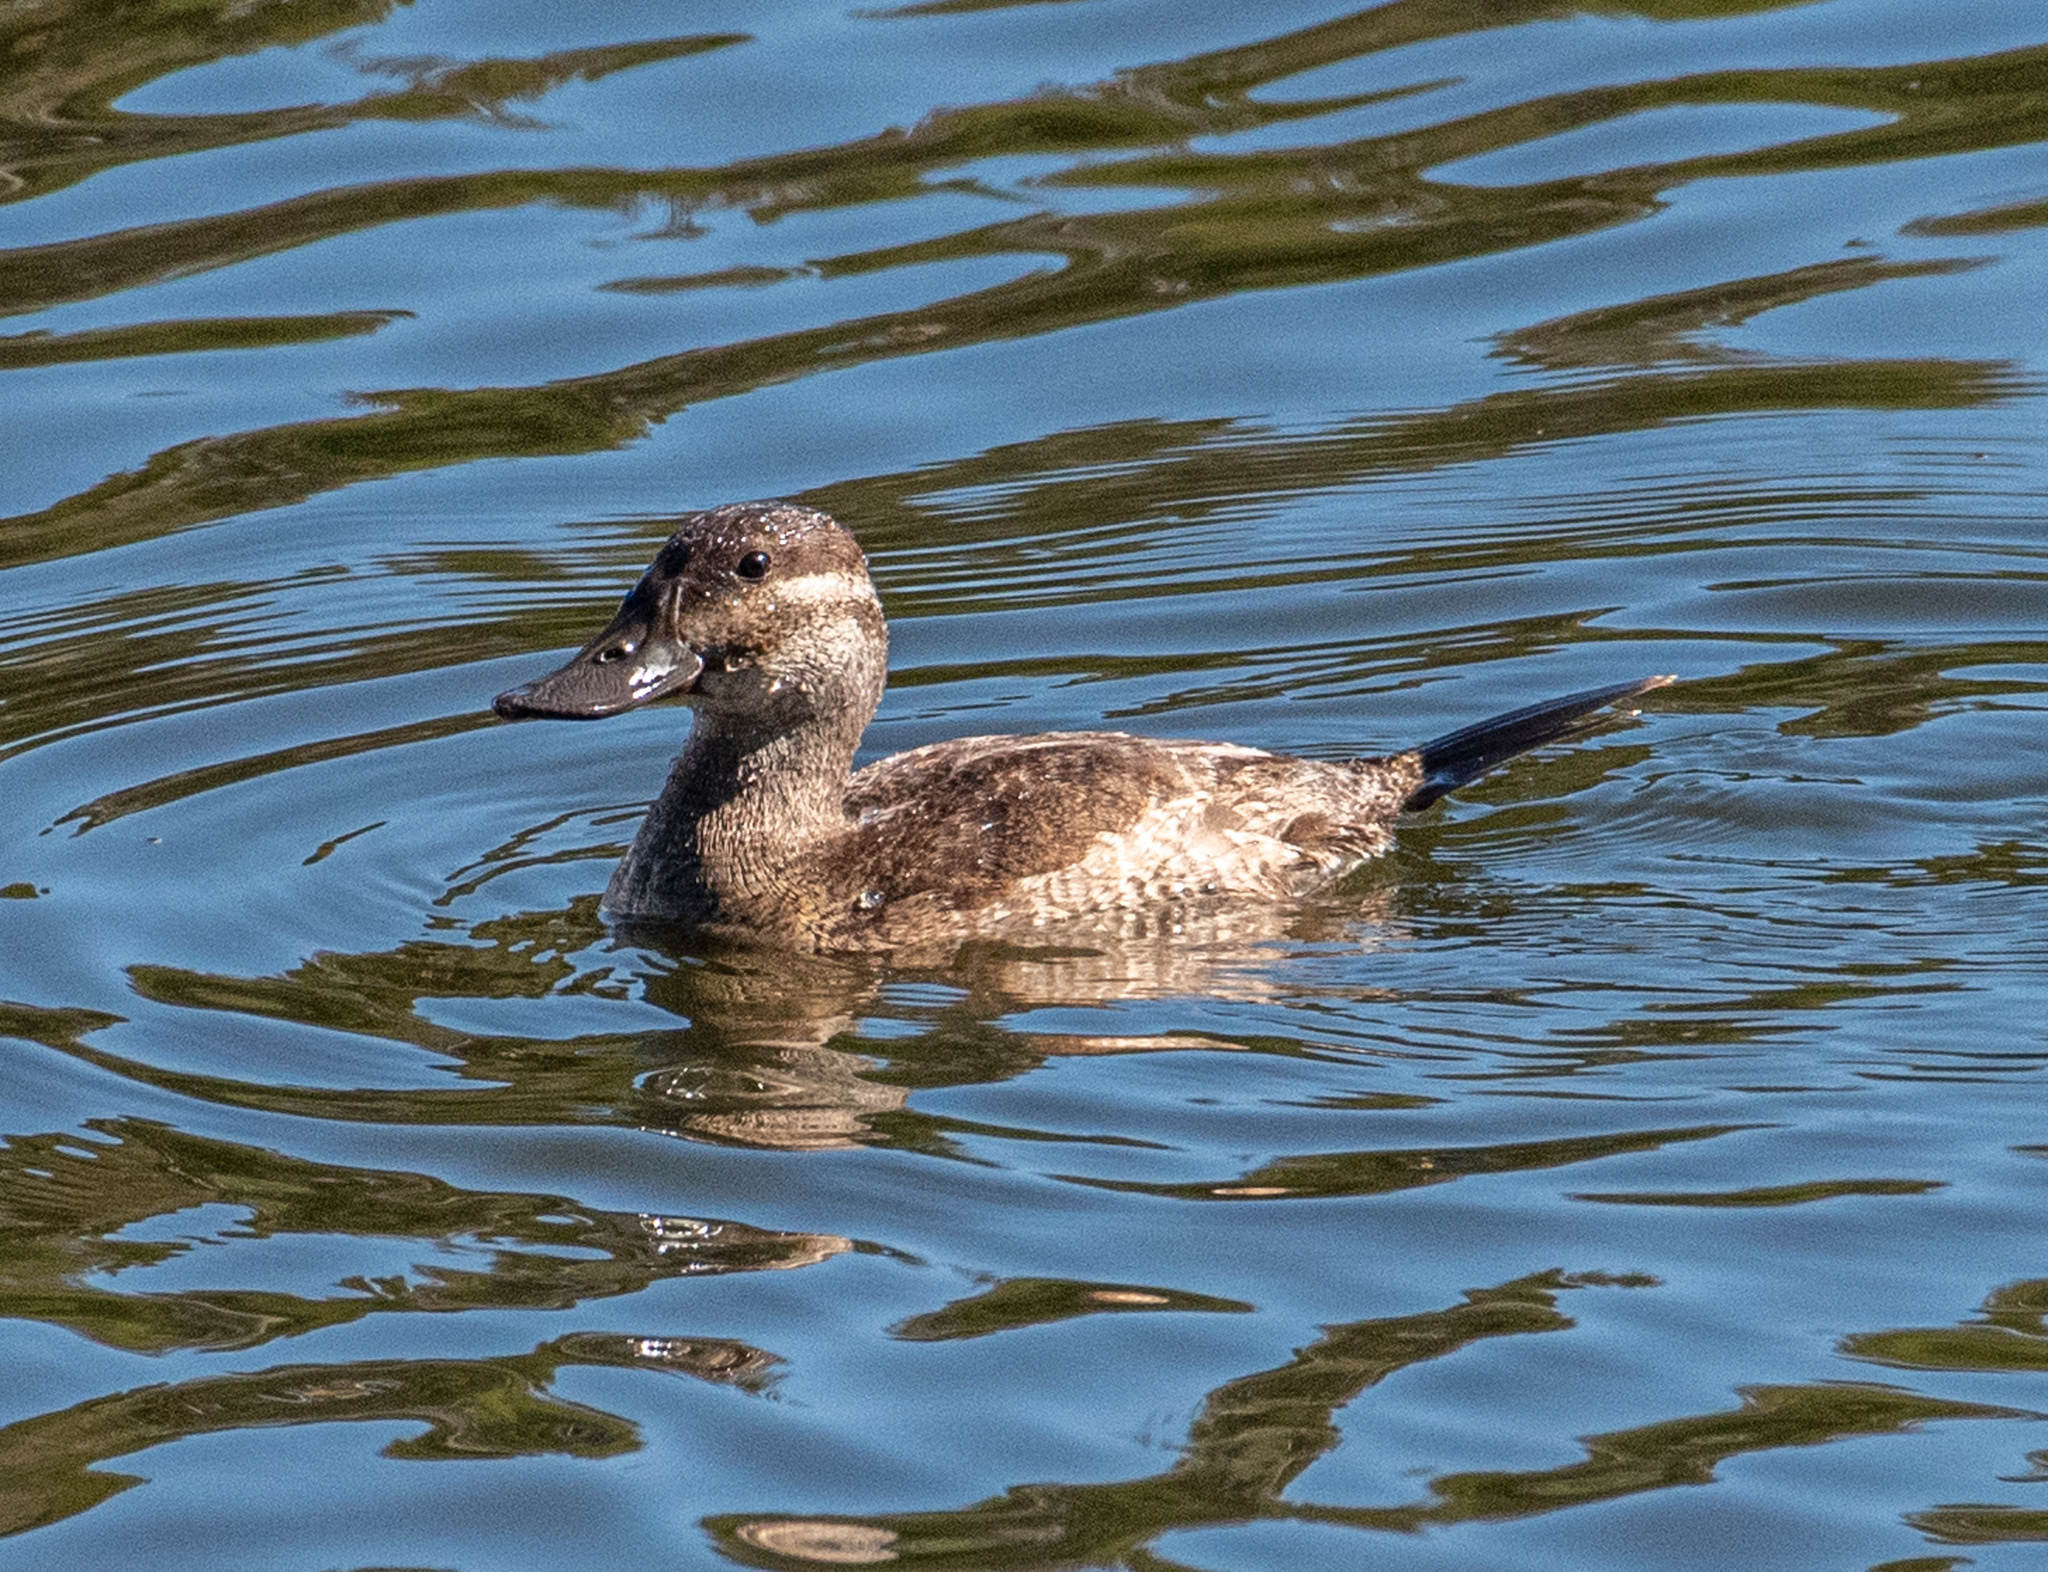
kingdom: Animalia
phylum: Chordata
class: Aves
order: Anseriformes
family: Anatidae
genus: Oxyura
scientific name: Oxyura jamaicensis
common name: Ruddy duck
